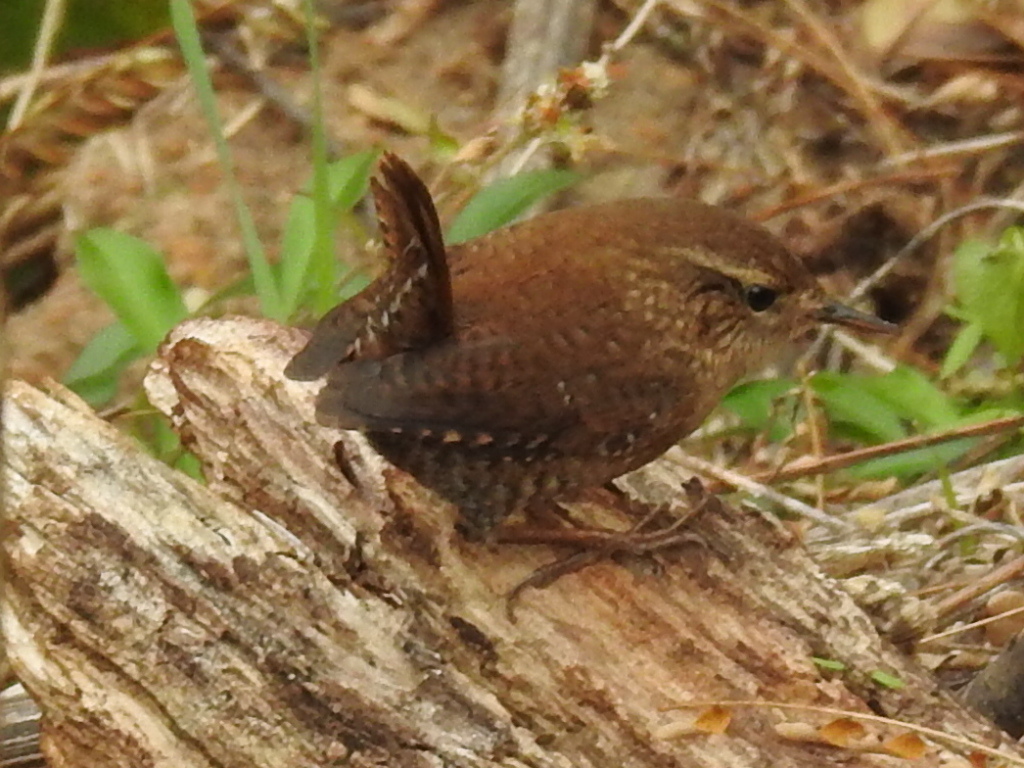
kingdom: Animalia
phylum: Chordata
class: Aves
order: Passeriformes
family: Troglodytidae
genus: Troglodytes
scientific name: Troglodytes hiemalis
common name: Winter wren
